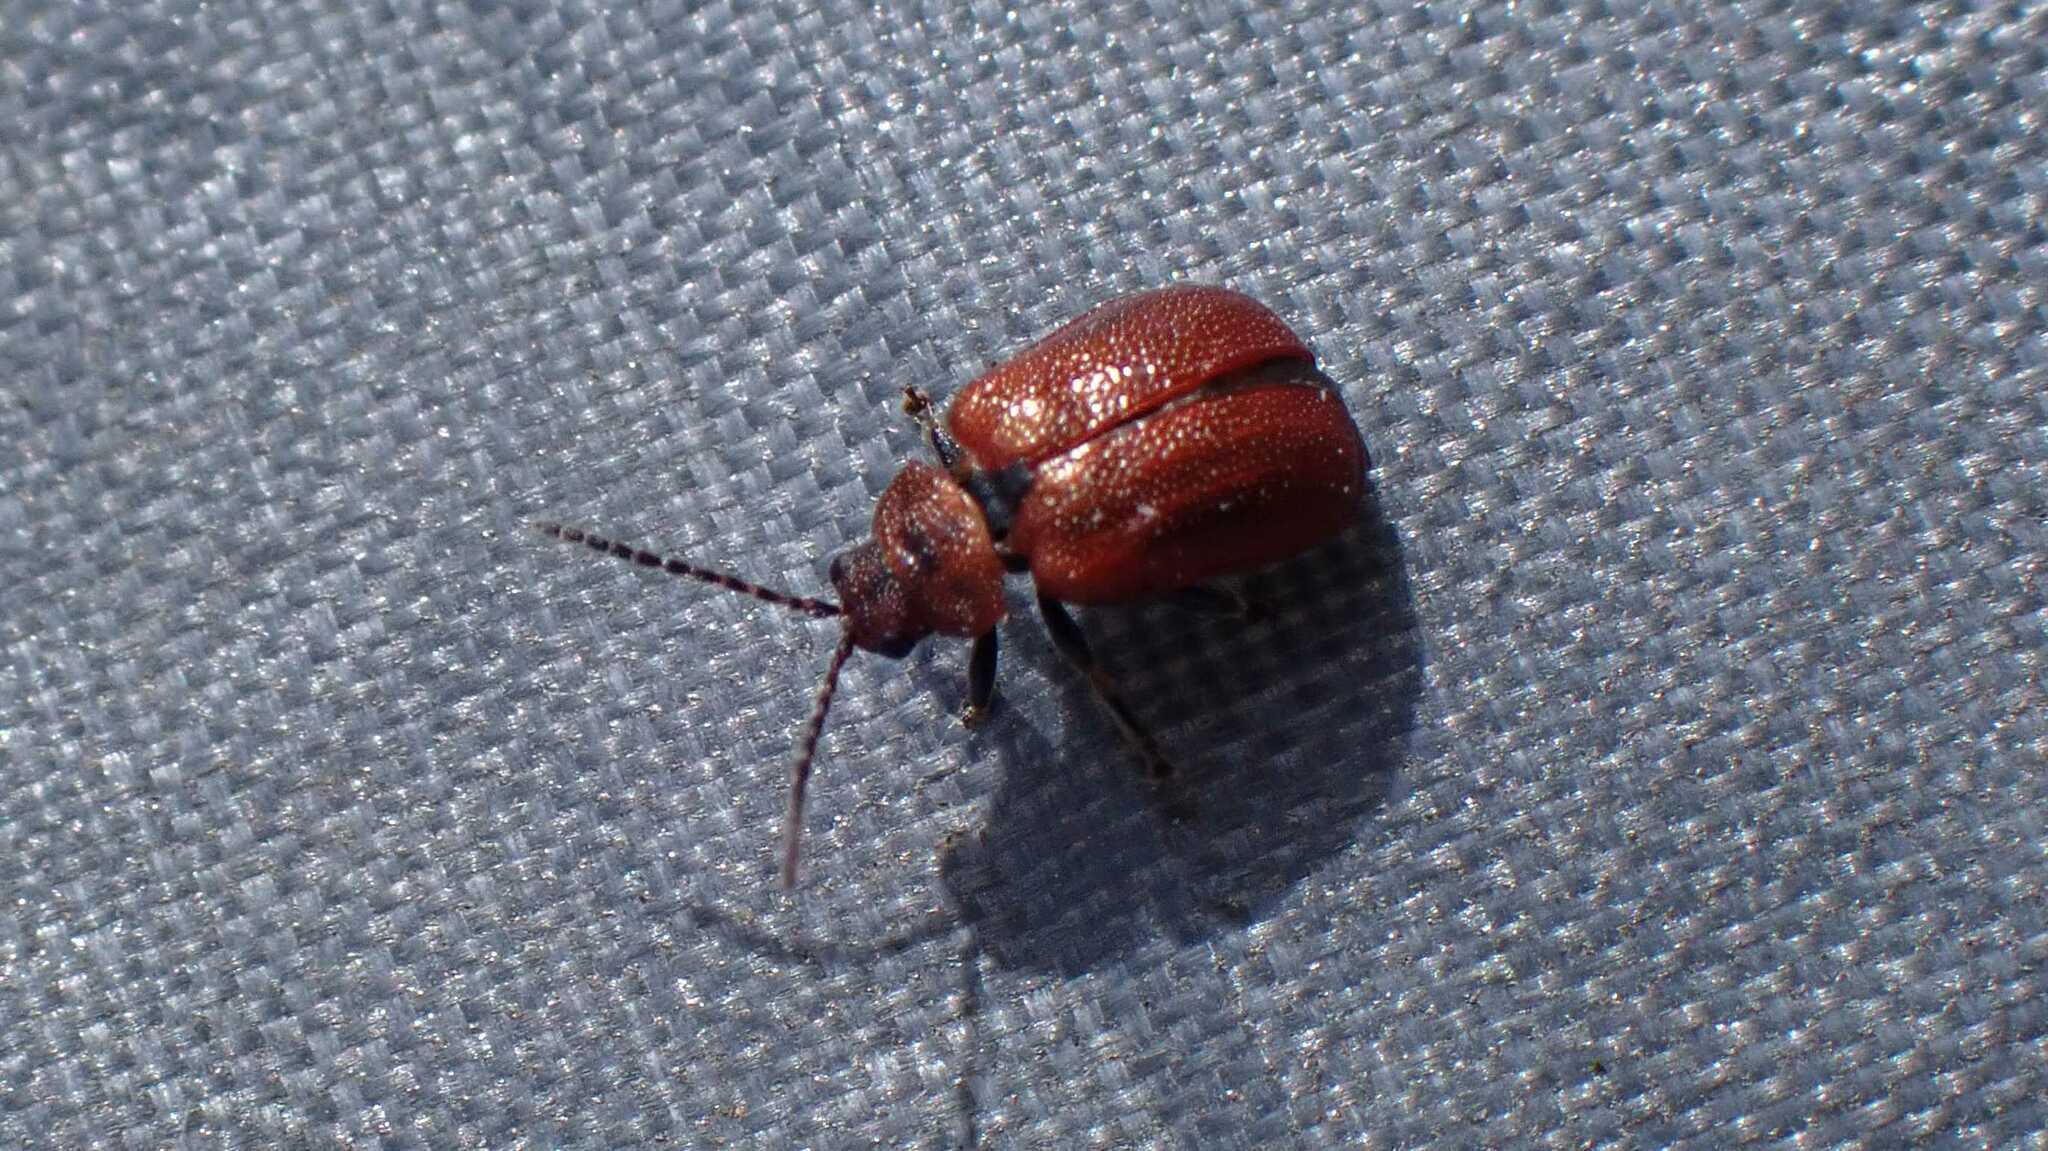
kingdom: Animalia
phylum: Arthropoda
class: Insecta
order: Coleoptera
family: Chrysomelidae
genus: Lochmaea
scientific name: Lochmaea crataegi
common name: Hawthorn leaf beetle
